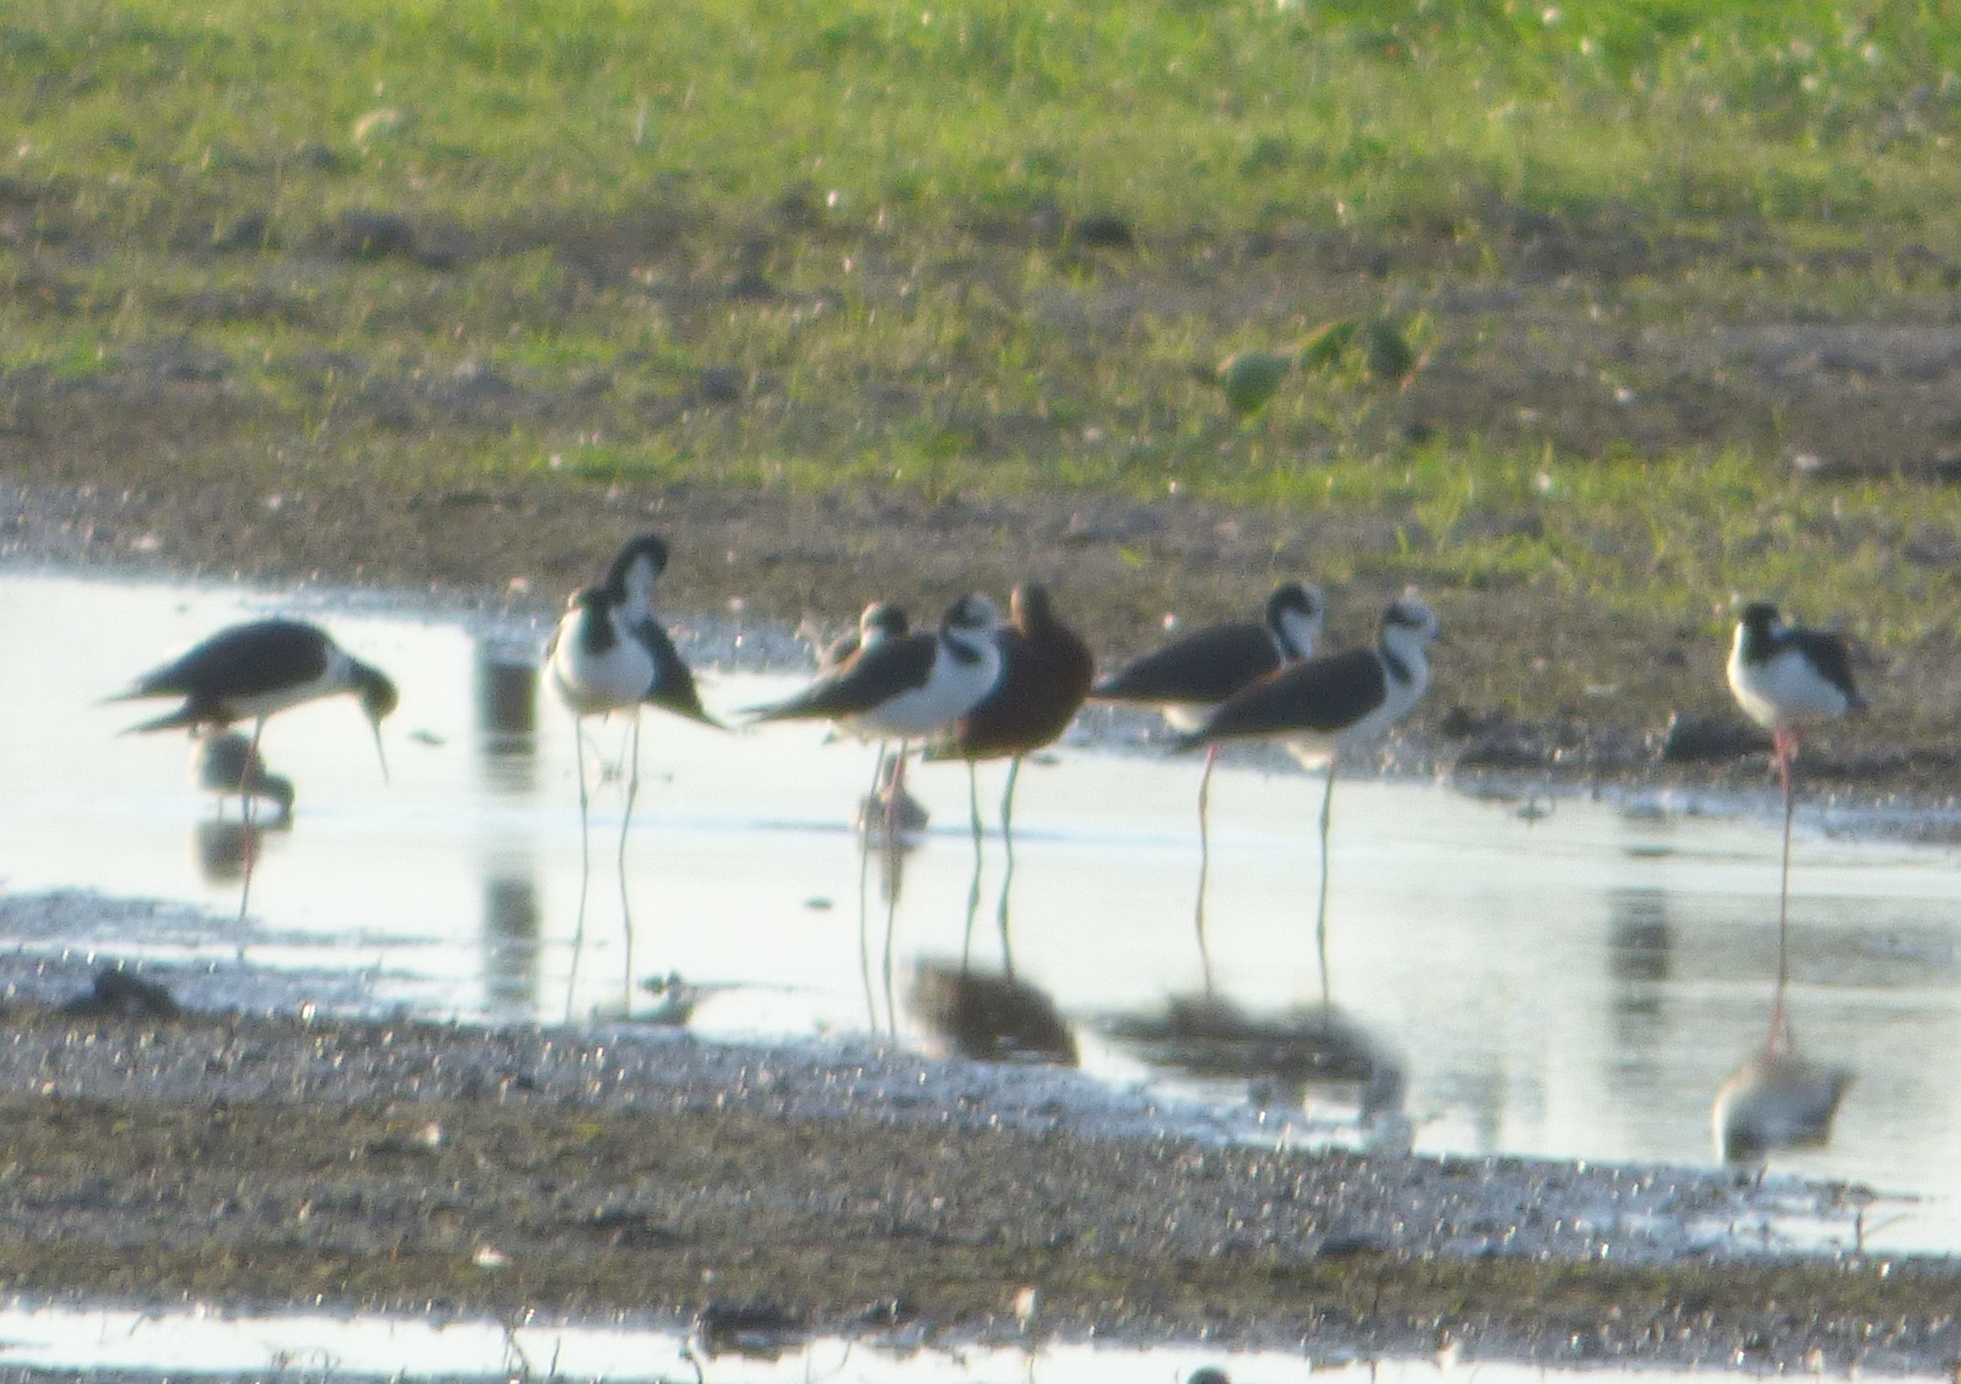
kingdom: Animalia
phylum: Chordata
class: Aves
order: Charadriiformes
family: Recurvirostridae
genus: Himantopus
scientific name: Himantopus mexicanus
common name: Black-necked stilt
